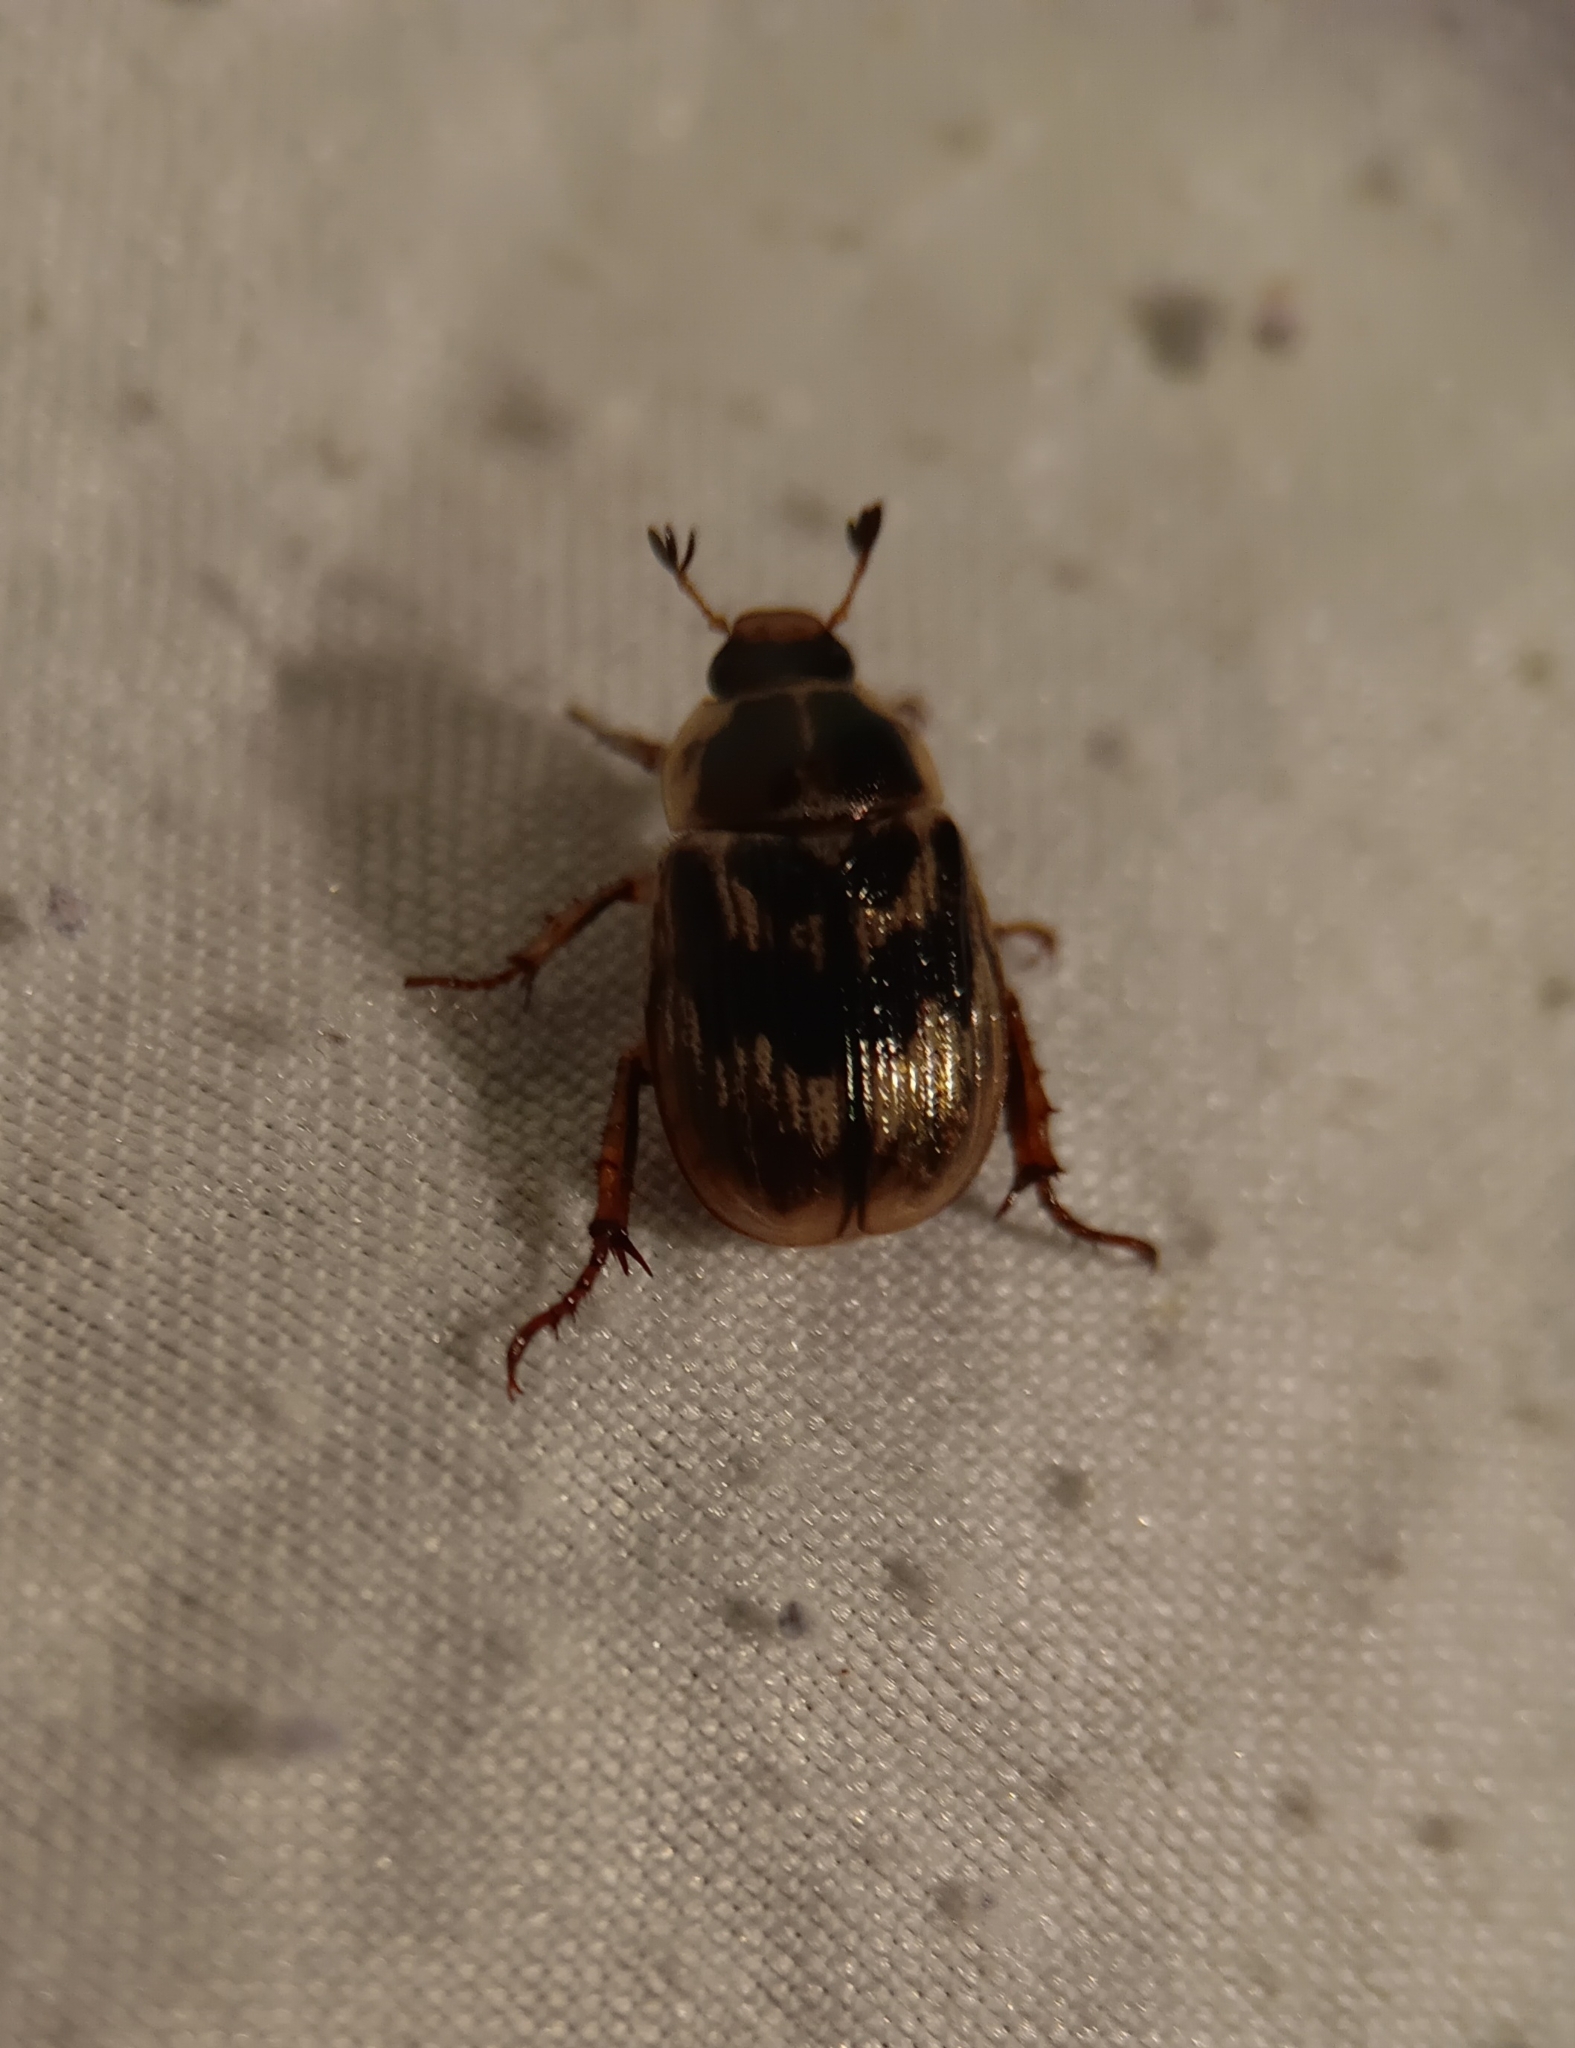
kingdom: Animalia
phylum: Arthropoda
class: Insecta
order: Coleoptera
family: Scarabaeidae
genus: Exomala
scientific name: Exomala orientalis
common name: Oriental beetle
